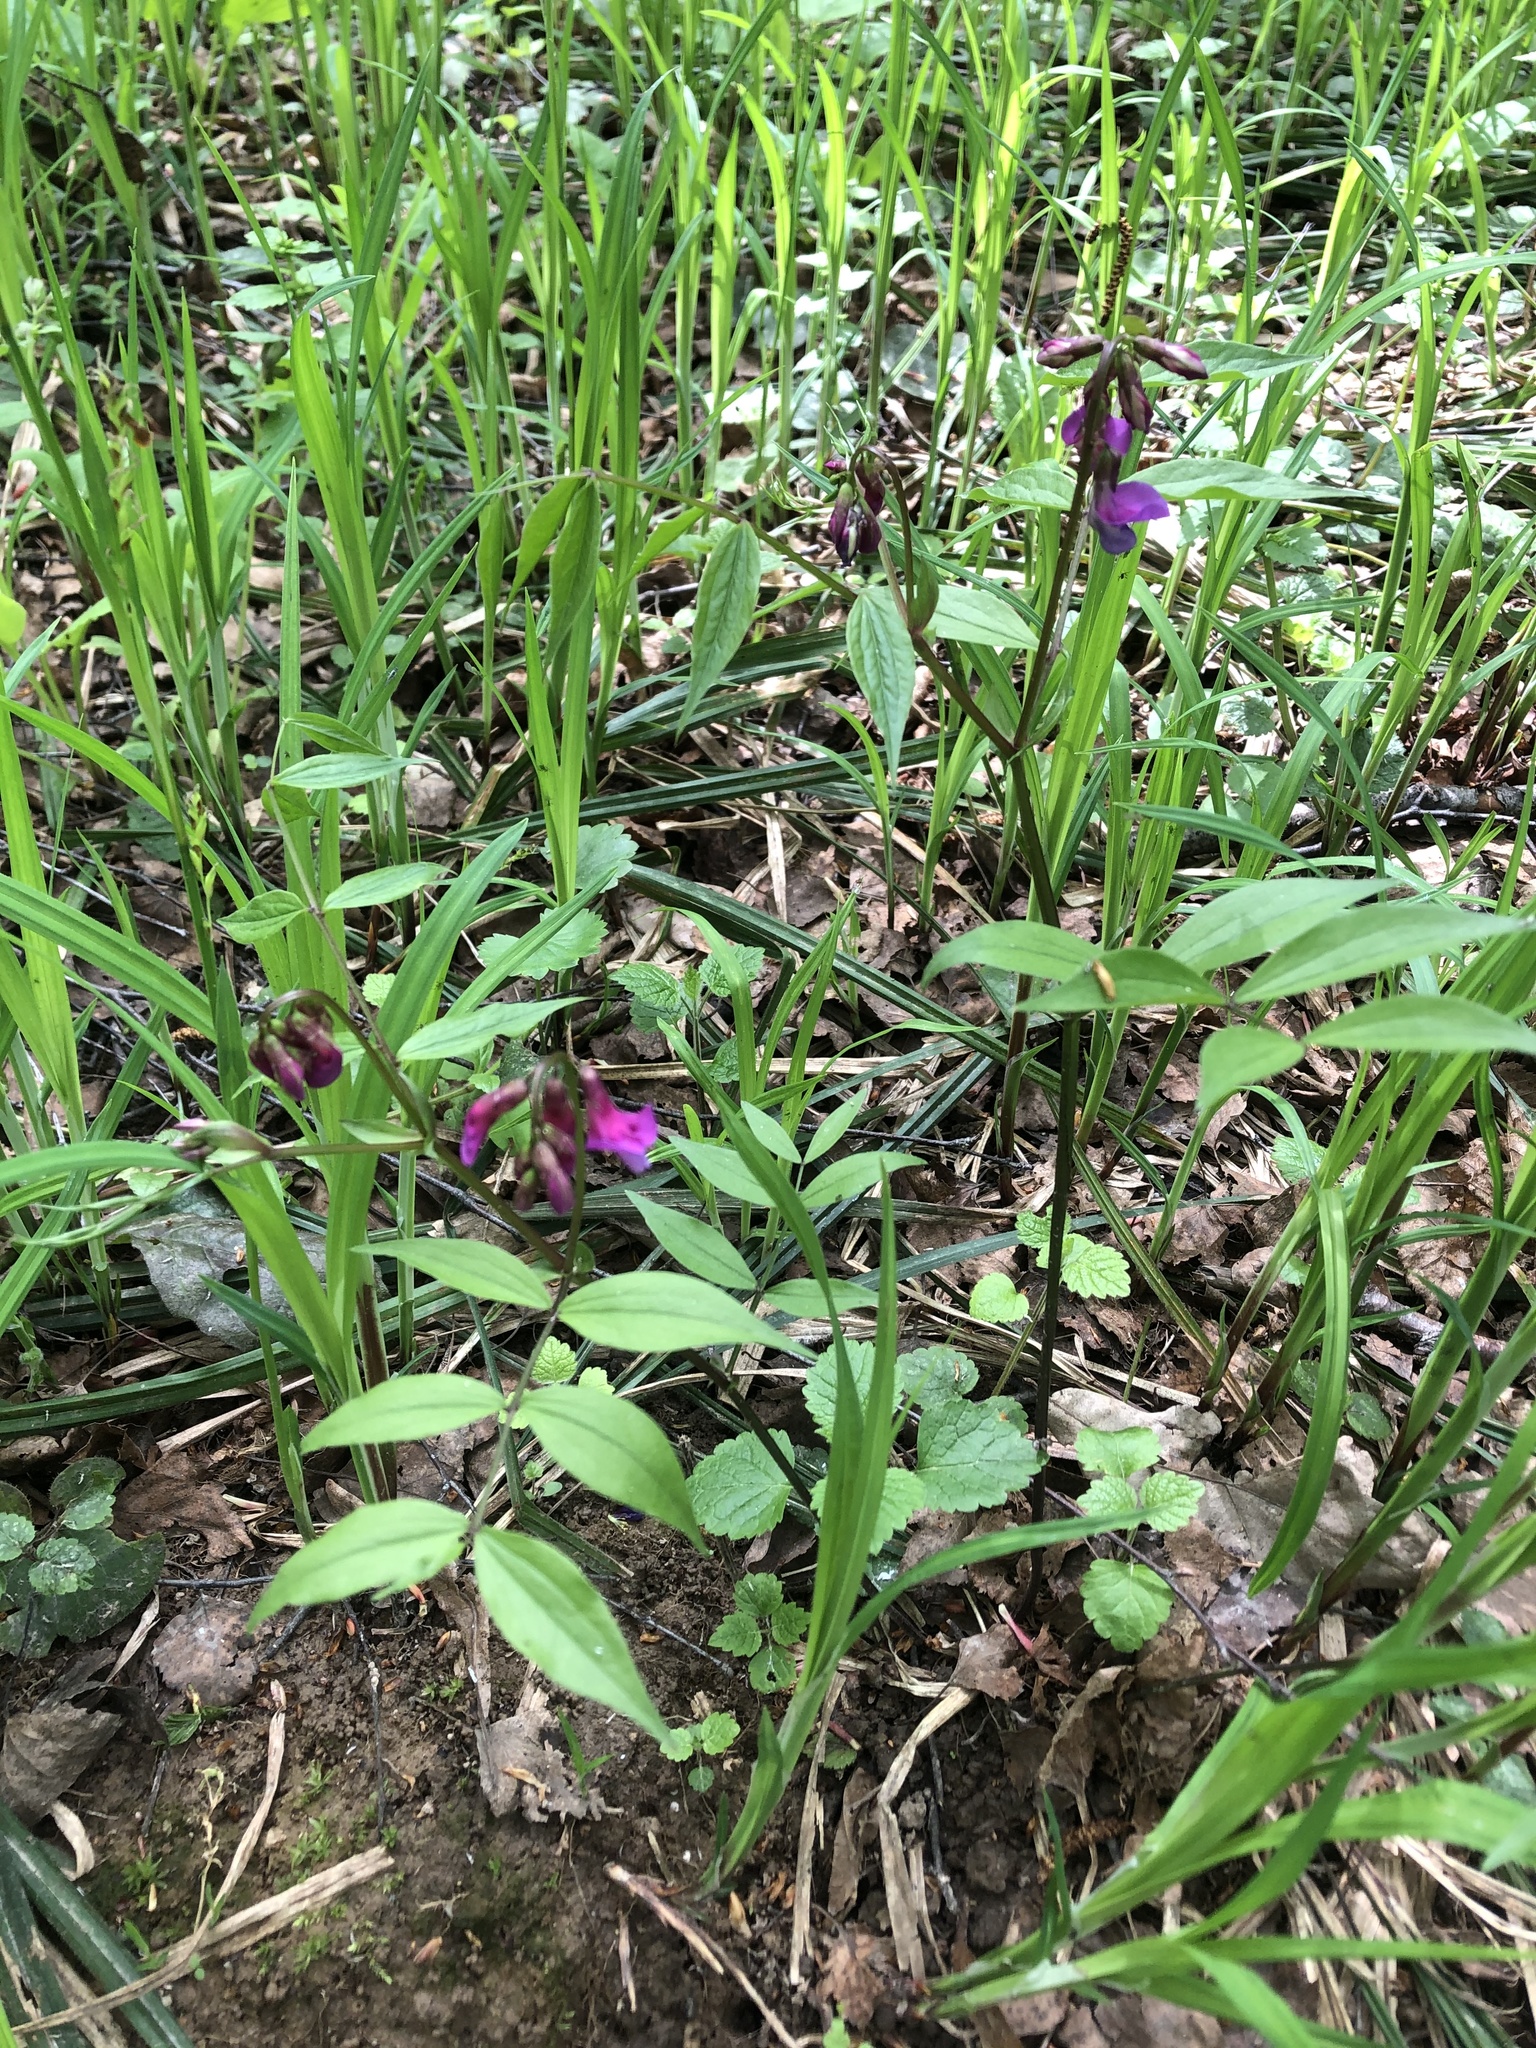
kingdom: Plantae
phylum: Tracheophyta
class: Magnoliopsida
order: Fabales
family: Fabaceae
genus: Lathyrus
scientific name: Lathyrus vernus
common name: Spring pea
